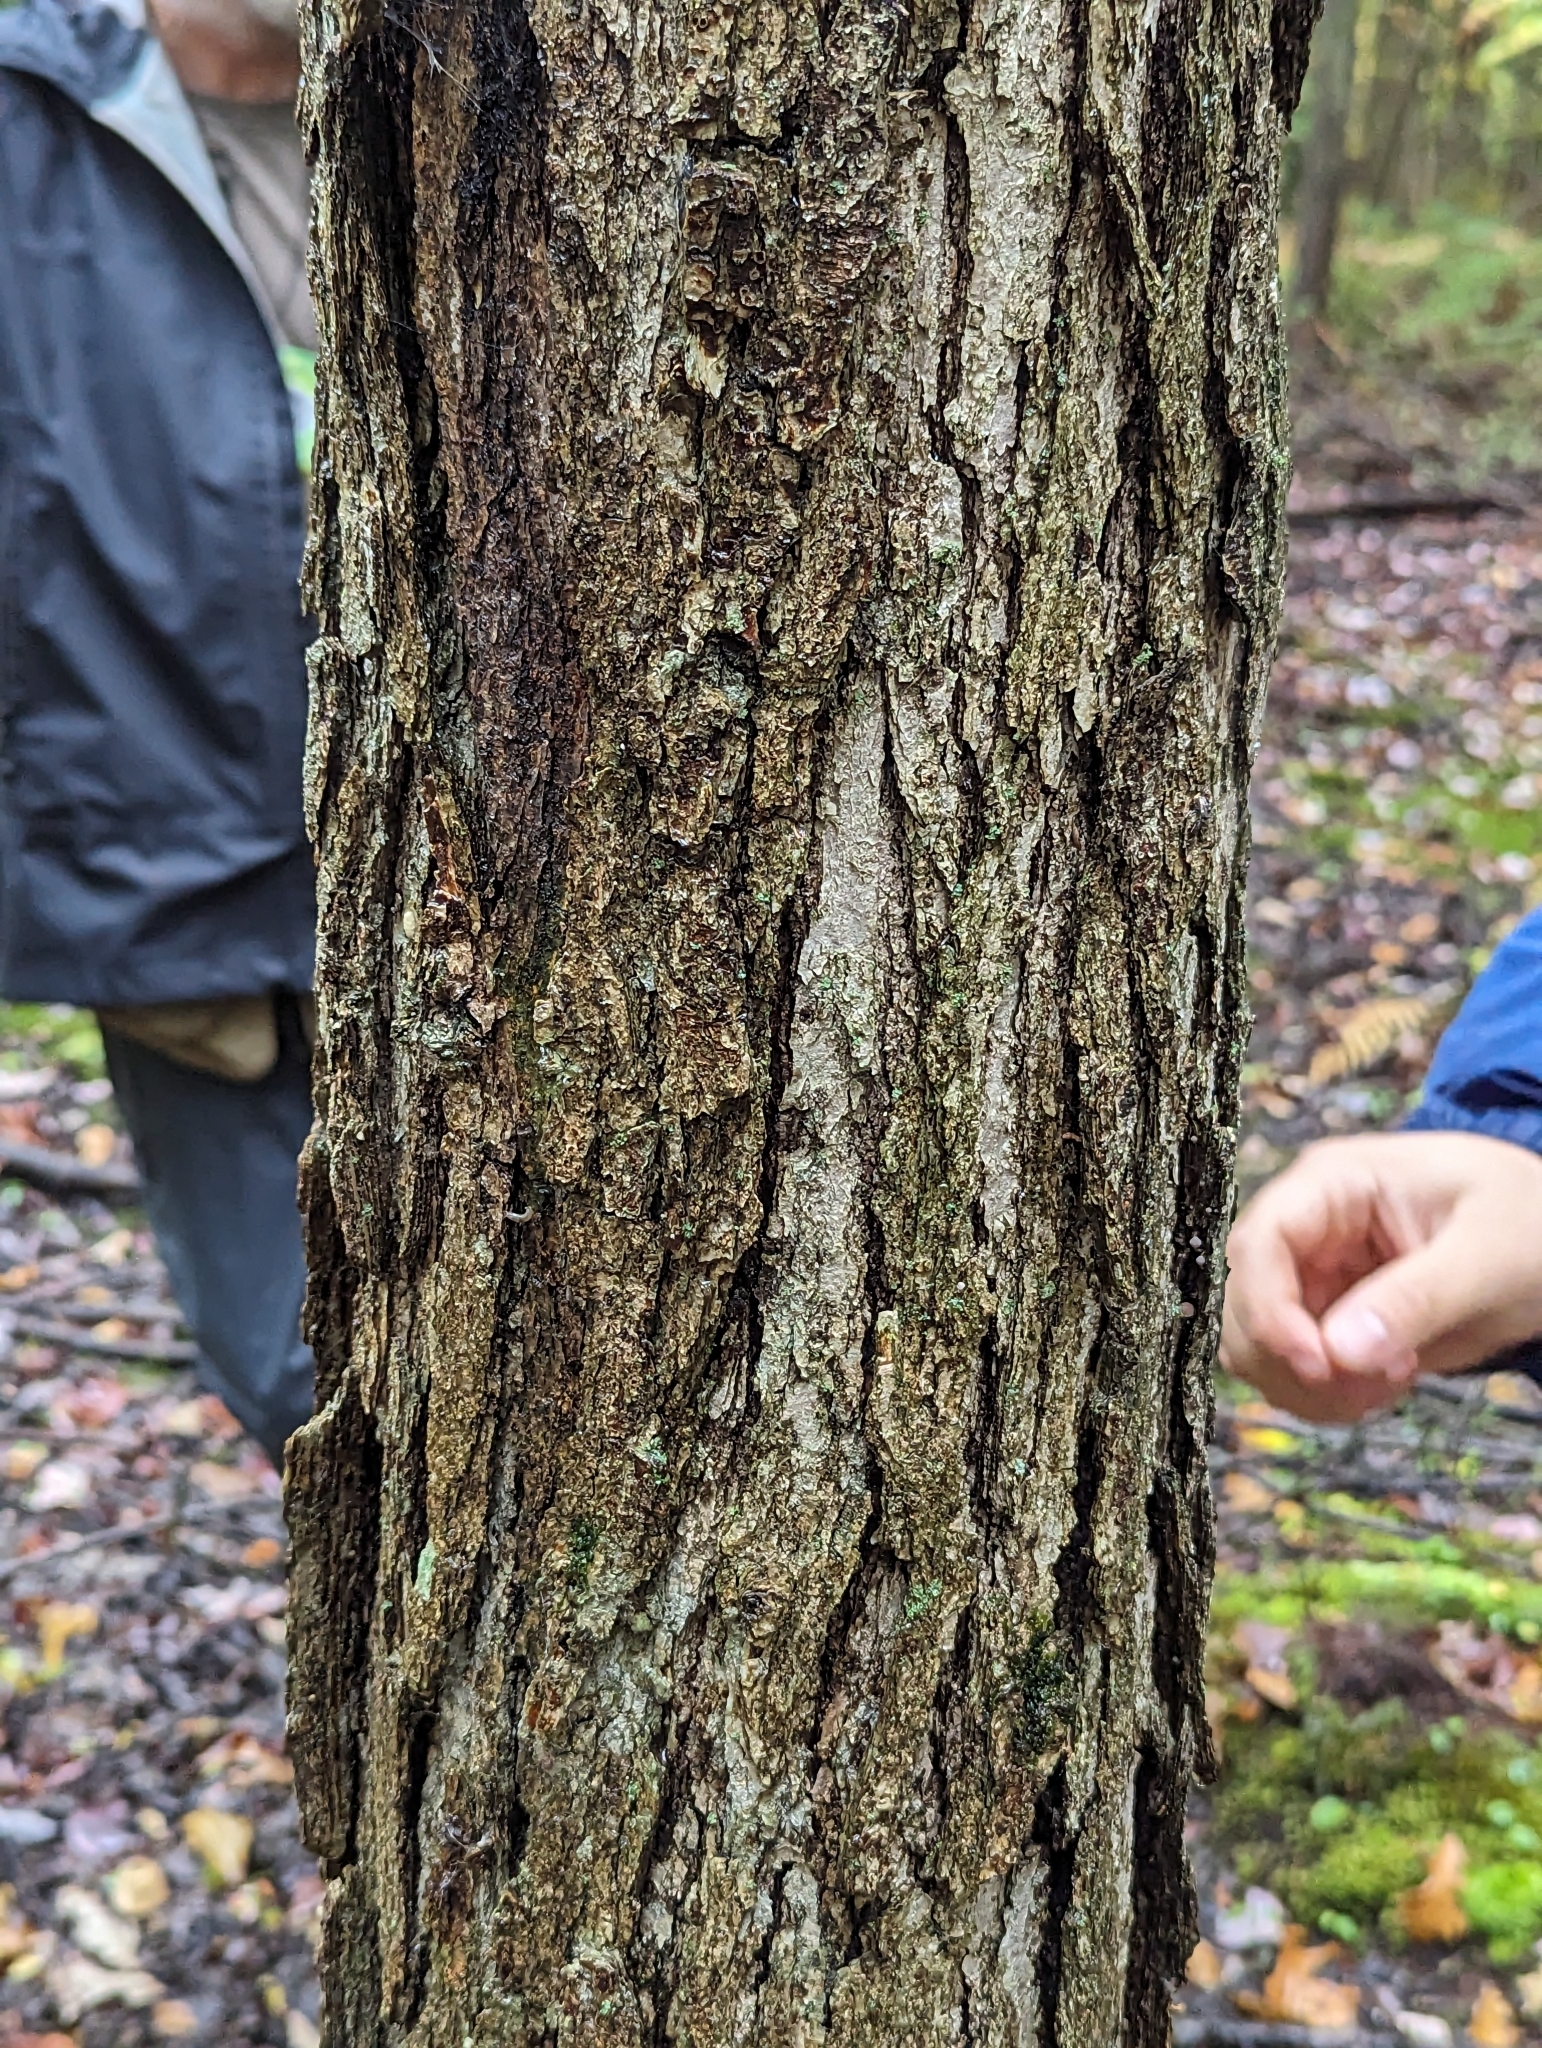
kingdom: Plantae
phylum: Tracheophyta
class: Magnoliopsida
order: Fagales
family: Fagaceae
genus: Quercus
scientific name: Quercus bicolor
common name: Swamp white oak
